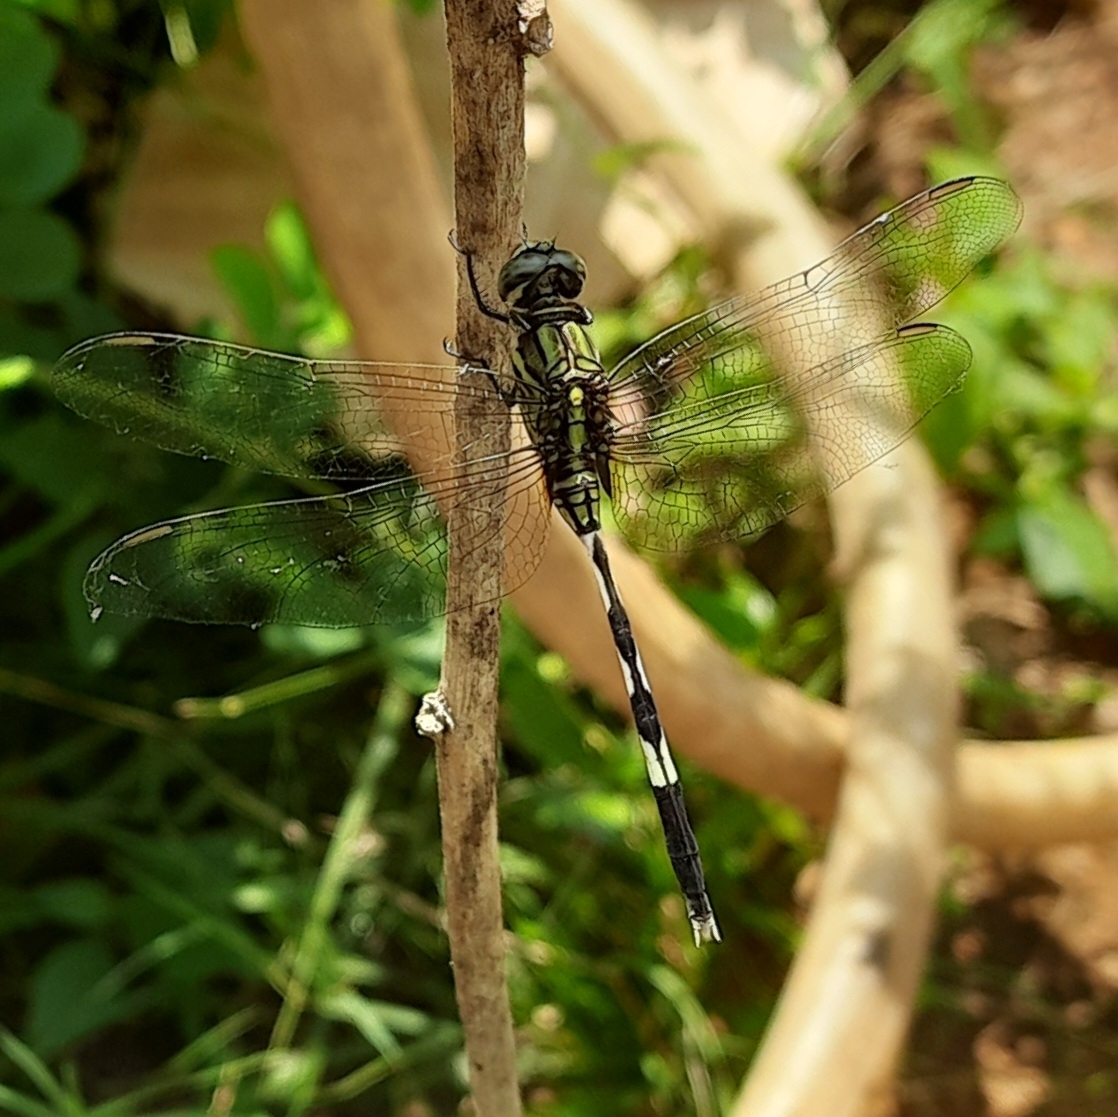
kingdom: Animalia
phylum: Arthropoda
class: Insecta
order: Odonata
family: Libellulidae
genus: Orthetrum
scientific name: Orthetrum sabina
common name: Slender skimmer
